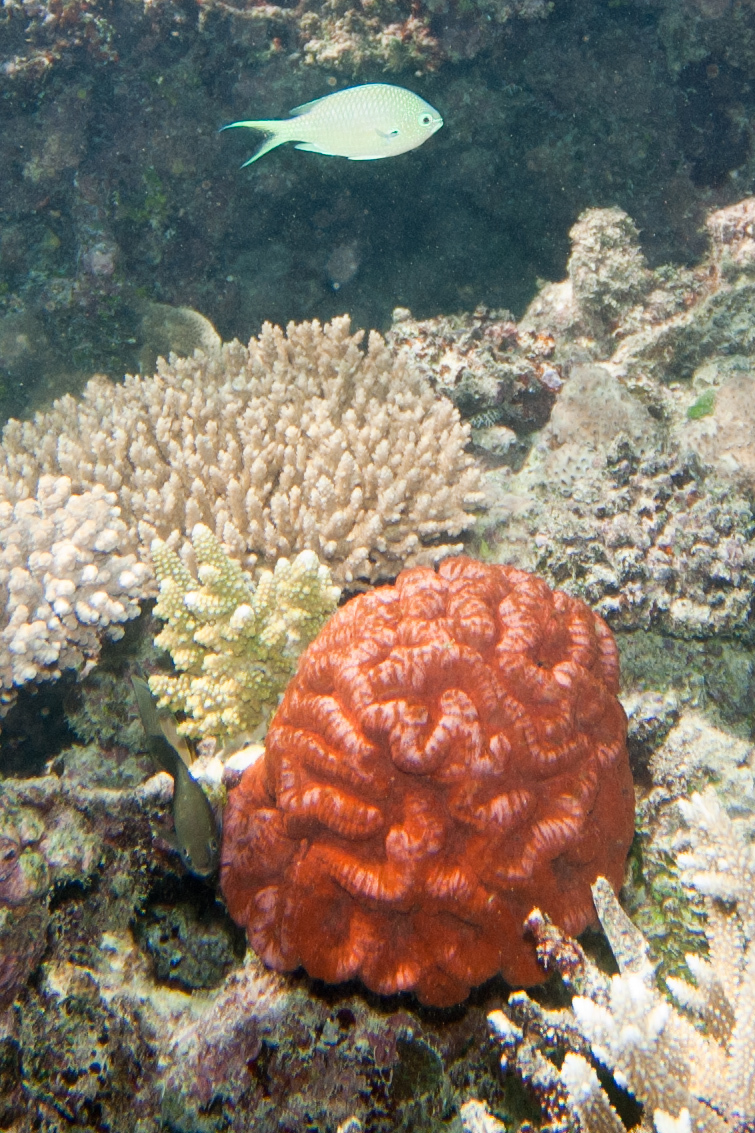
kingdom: Animalia
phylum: Chordata
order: Perciformes
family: Pomacentridae
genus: Chromis
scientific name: Chromis atripectoralis
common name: Black-axil chromis
